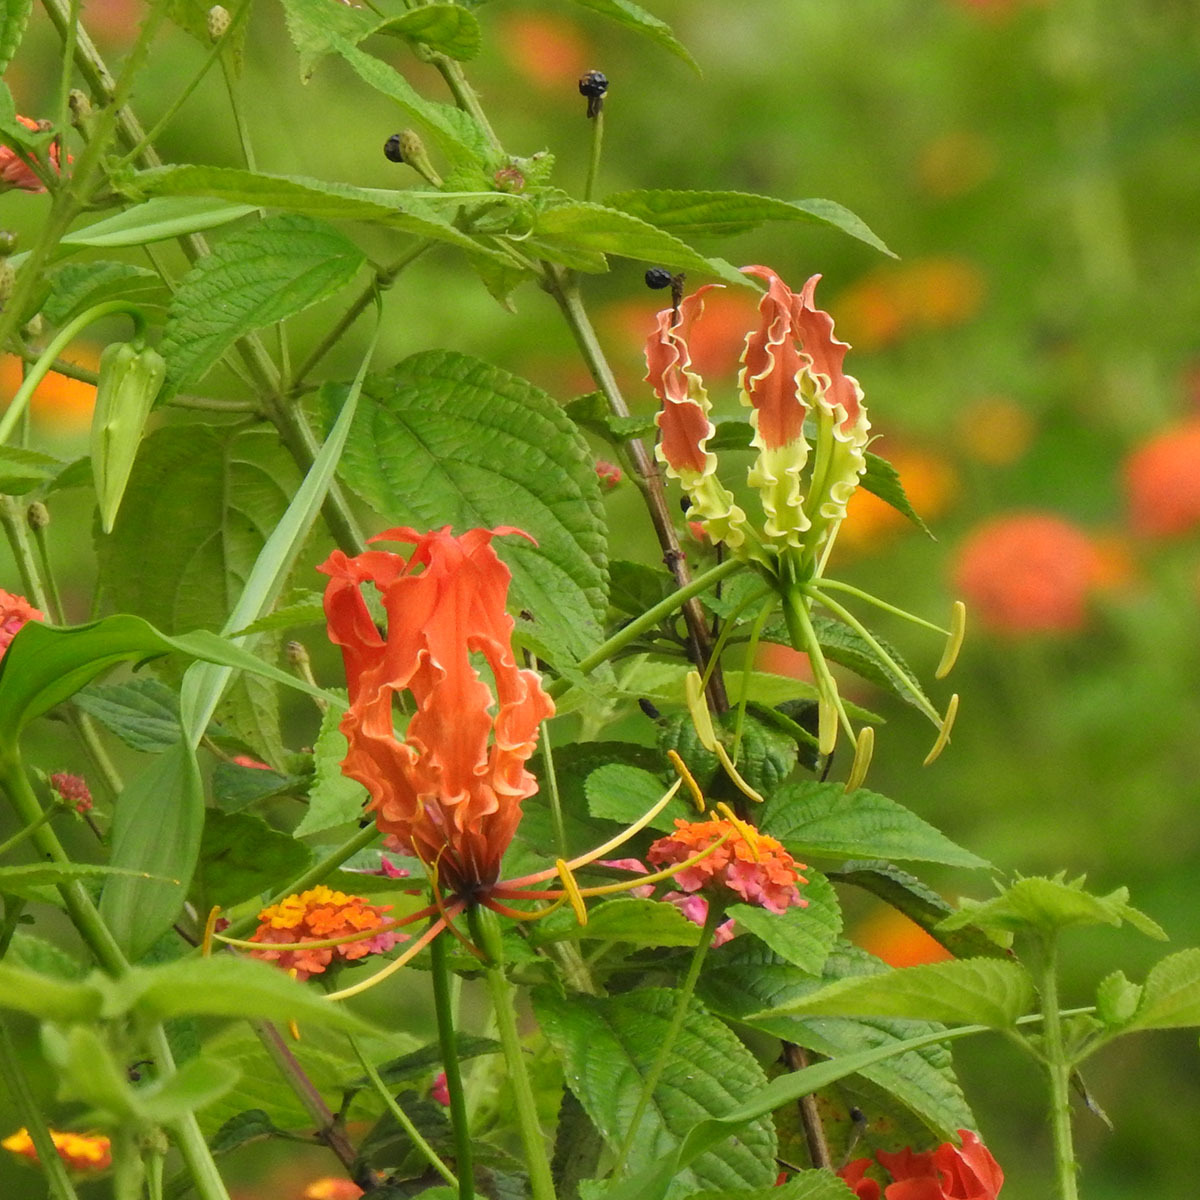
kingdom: Plantae
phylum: Tracheophyta
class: Liliopsida
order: Liliales
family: Colchicaceae
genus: Gloriosa
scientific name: Gloriosa superba
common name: Flame lily
